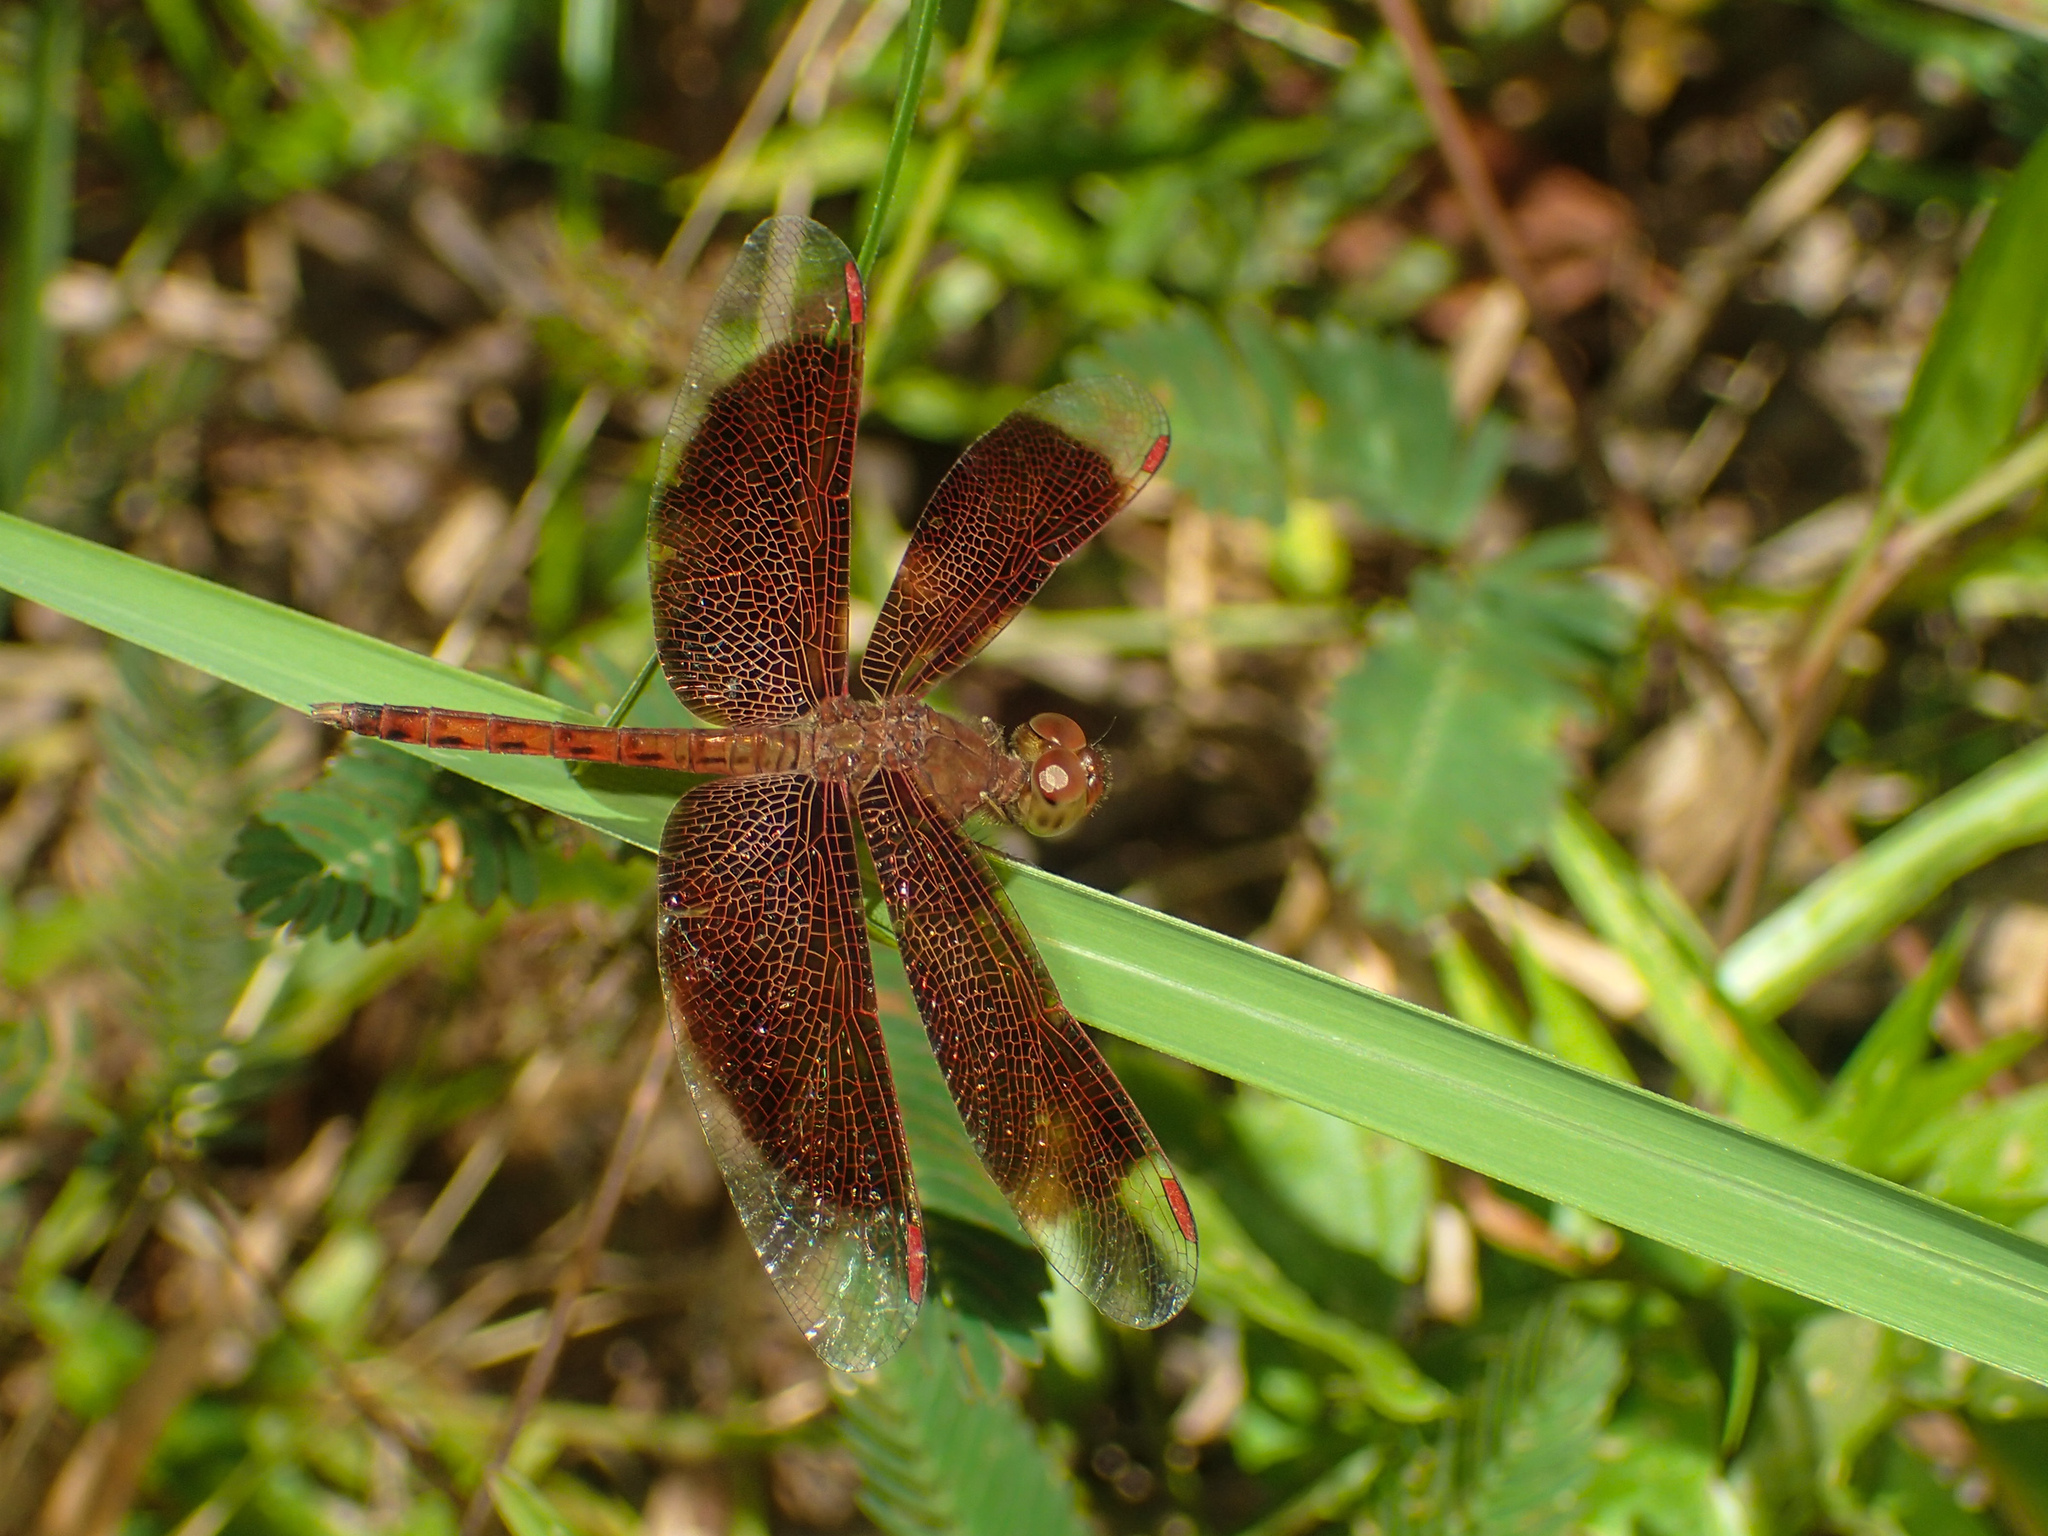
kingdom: Animalia
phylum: Arthropoda
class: Insecta
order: Odonata
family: Libellulidae
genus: Neurothemis
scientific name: Neurothemis fluctuans
